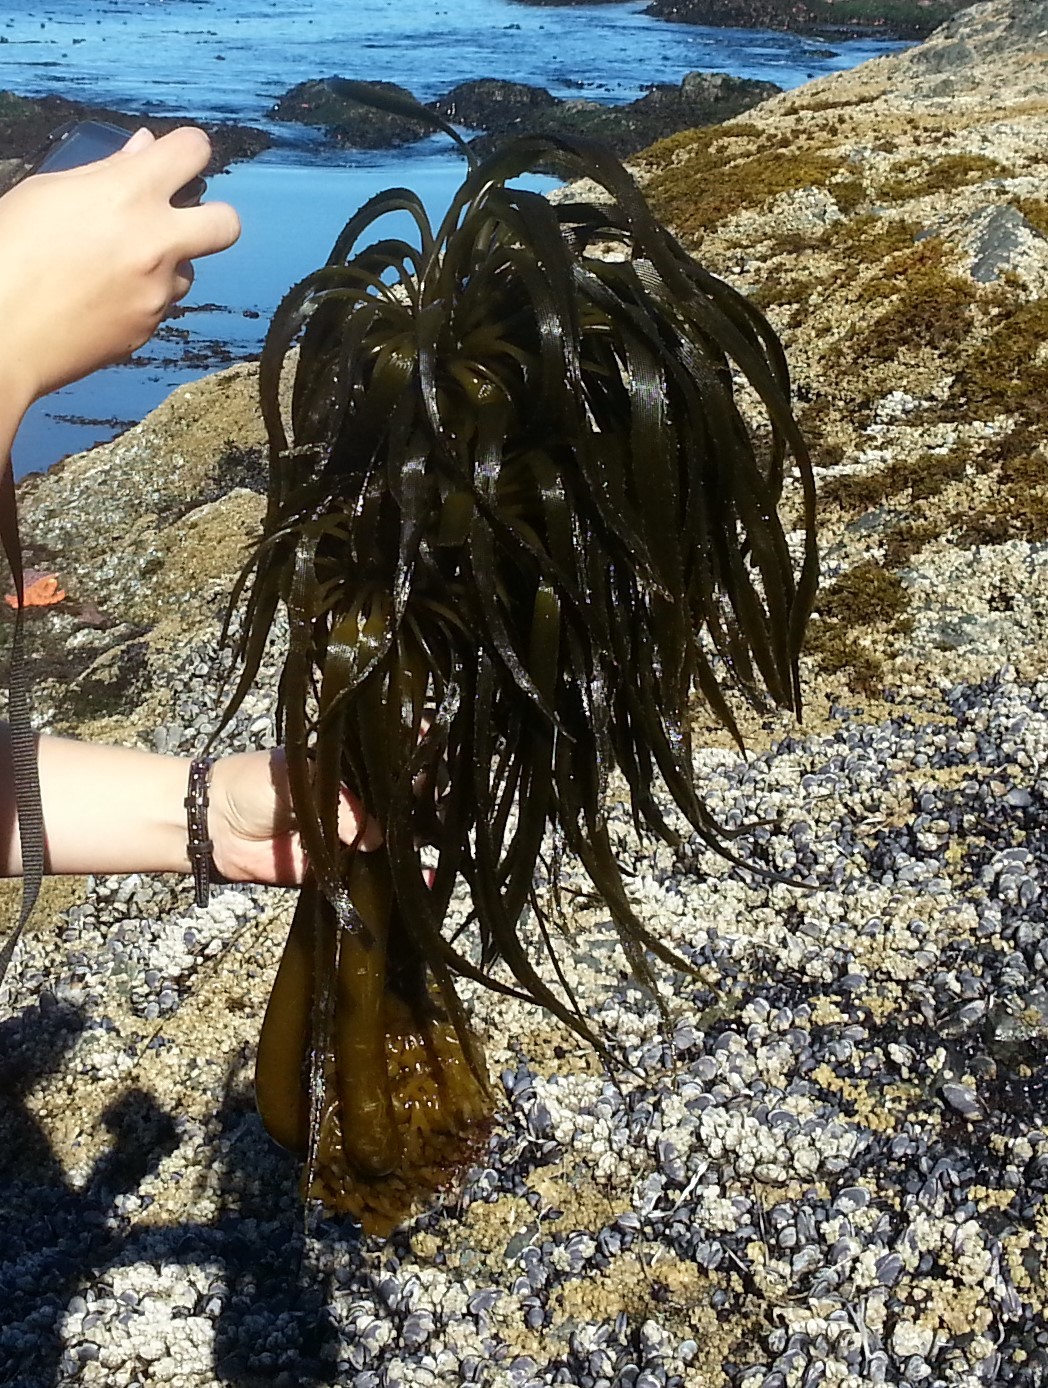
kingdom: Chromista
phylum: Ochrophyta
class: Phaeophyceae
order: Laminariales
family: Laminariaceae
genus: Postelsia
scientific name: Postelsia palmiformis
